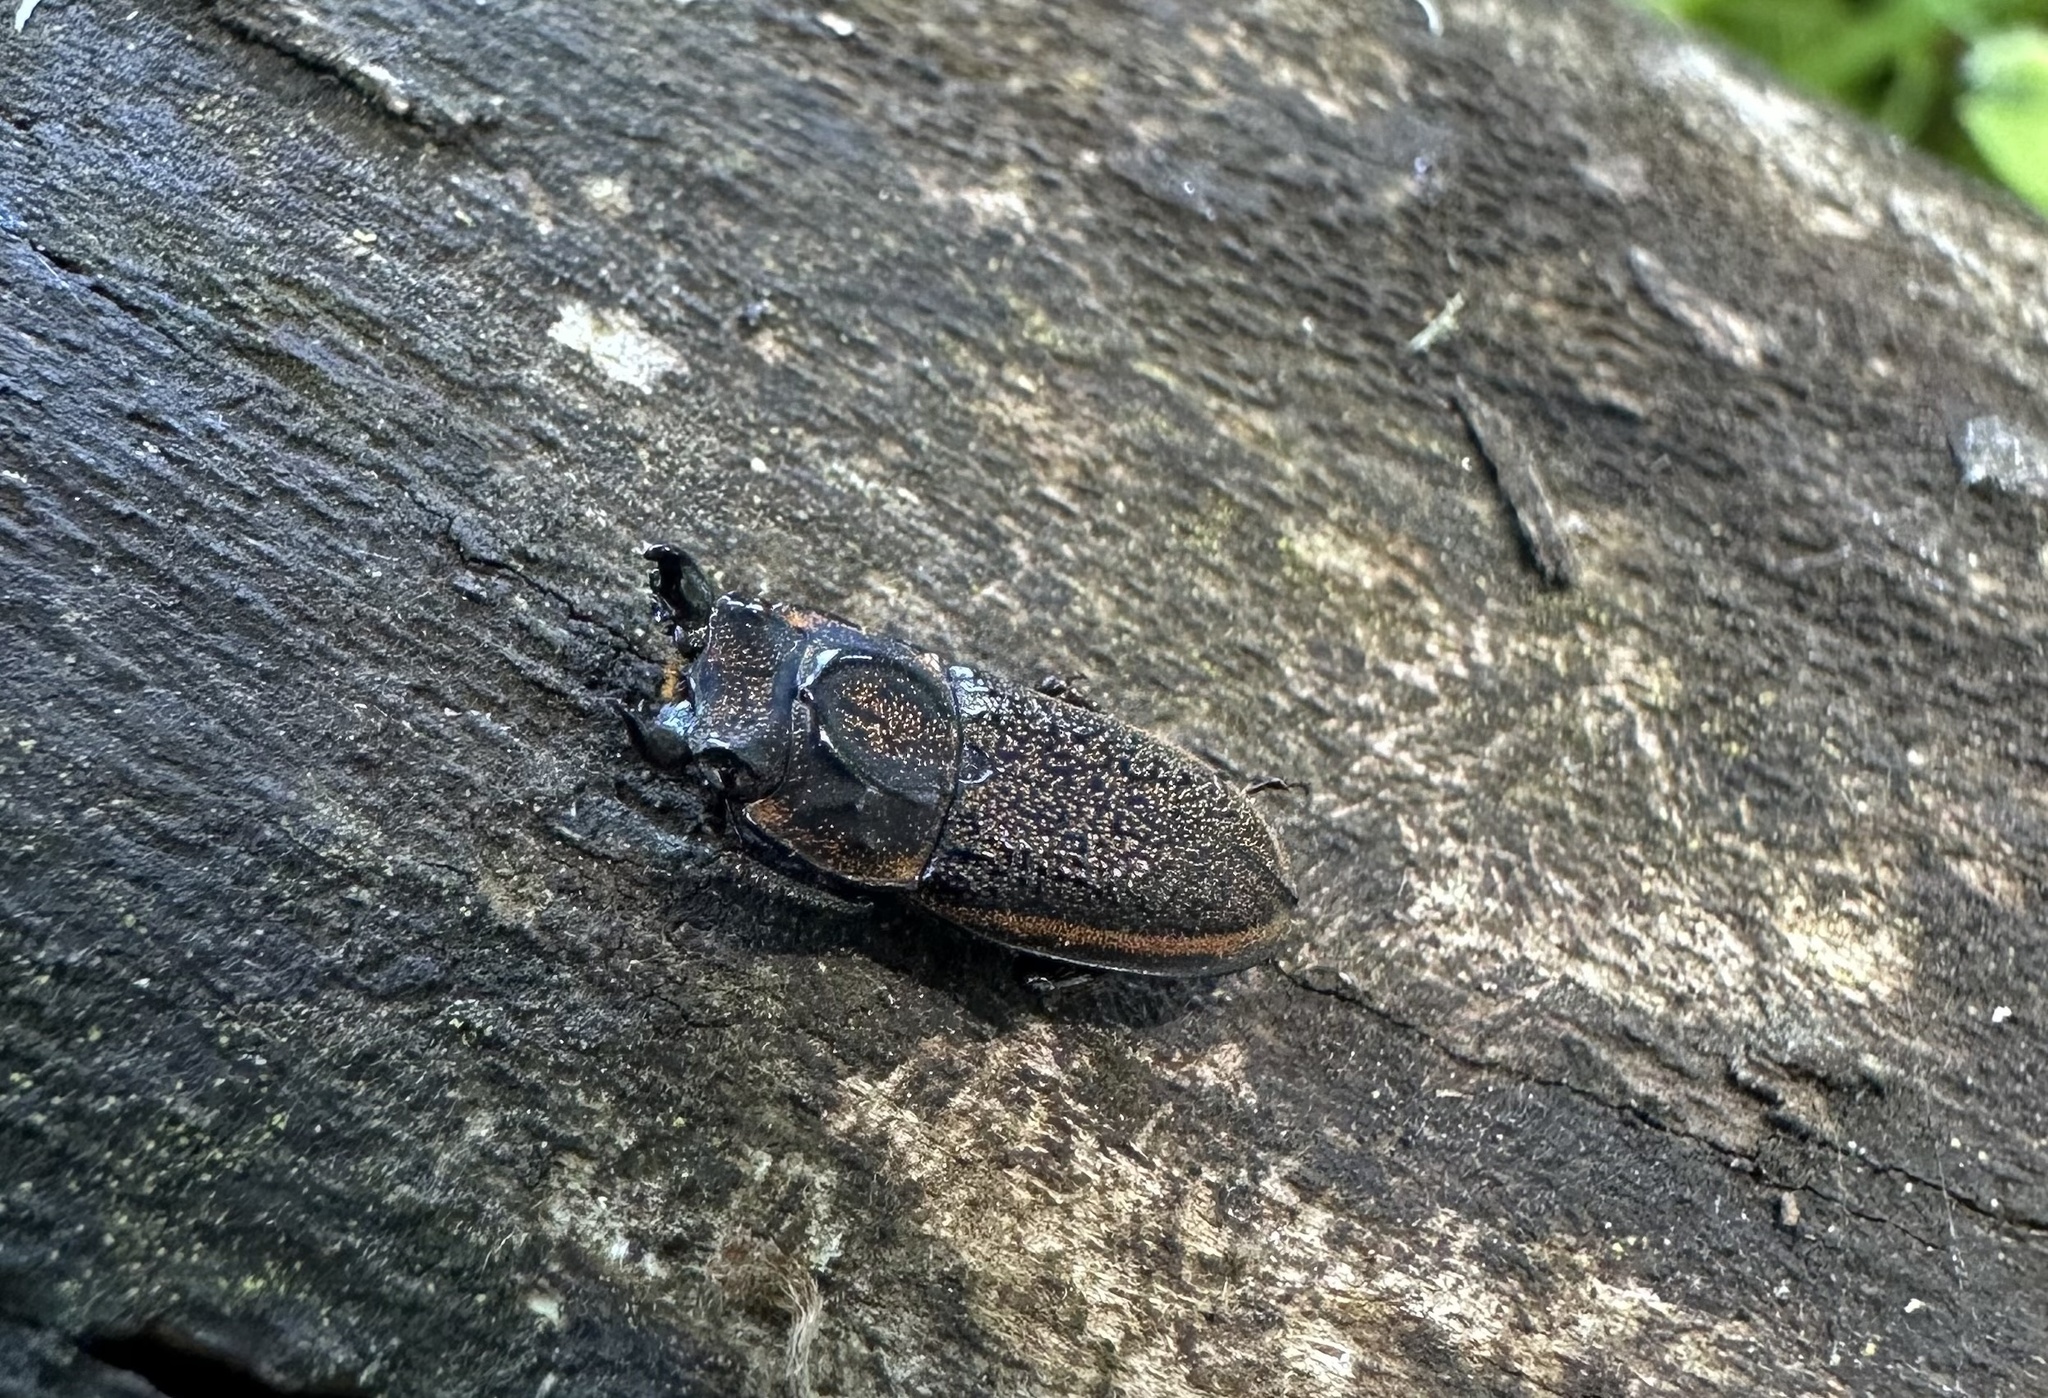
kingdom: Animalia
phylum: Arthropoda
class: Insecta
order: Coleoptera
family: Lucanidae
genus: Pycnosiphorus
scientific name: Pycnosiphorus lessonii
